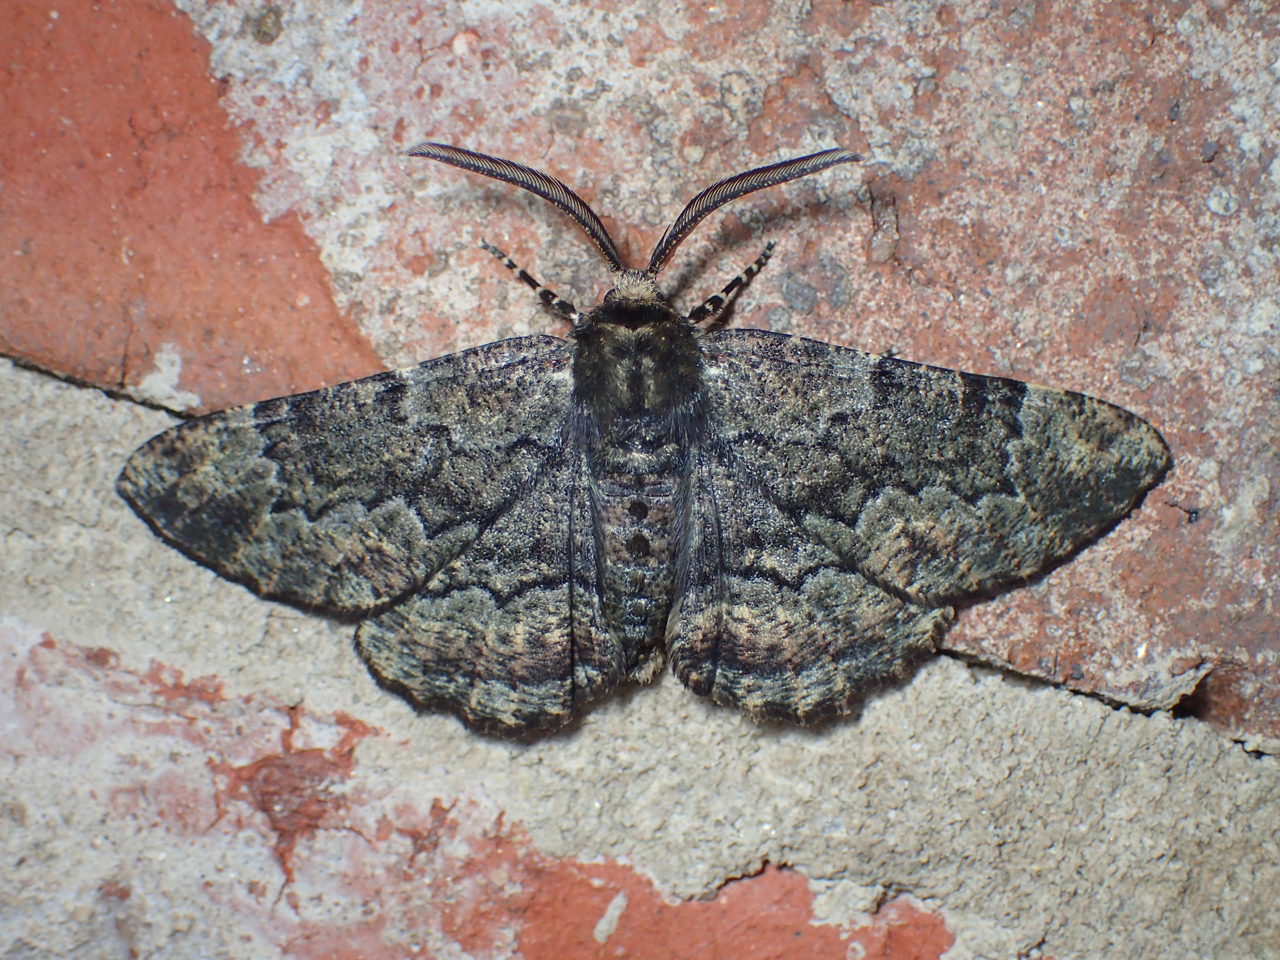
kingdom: Animalia
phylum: Arthropoda
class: Insecta
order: Lepidoptera
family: Geometridae
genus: Phaeoura
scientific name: Phaeoura quernaria
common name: Oak beauty
